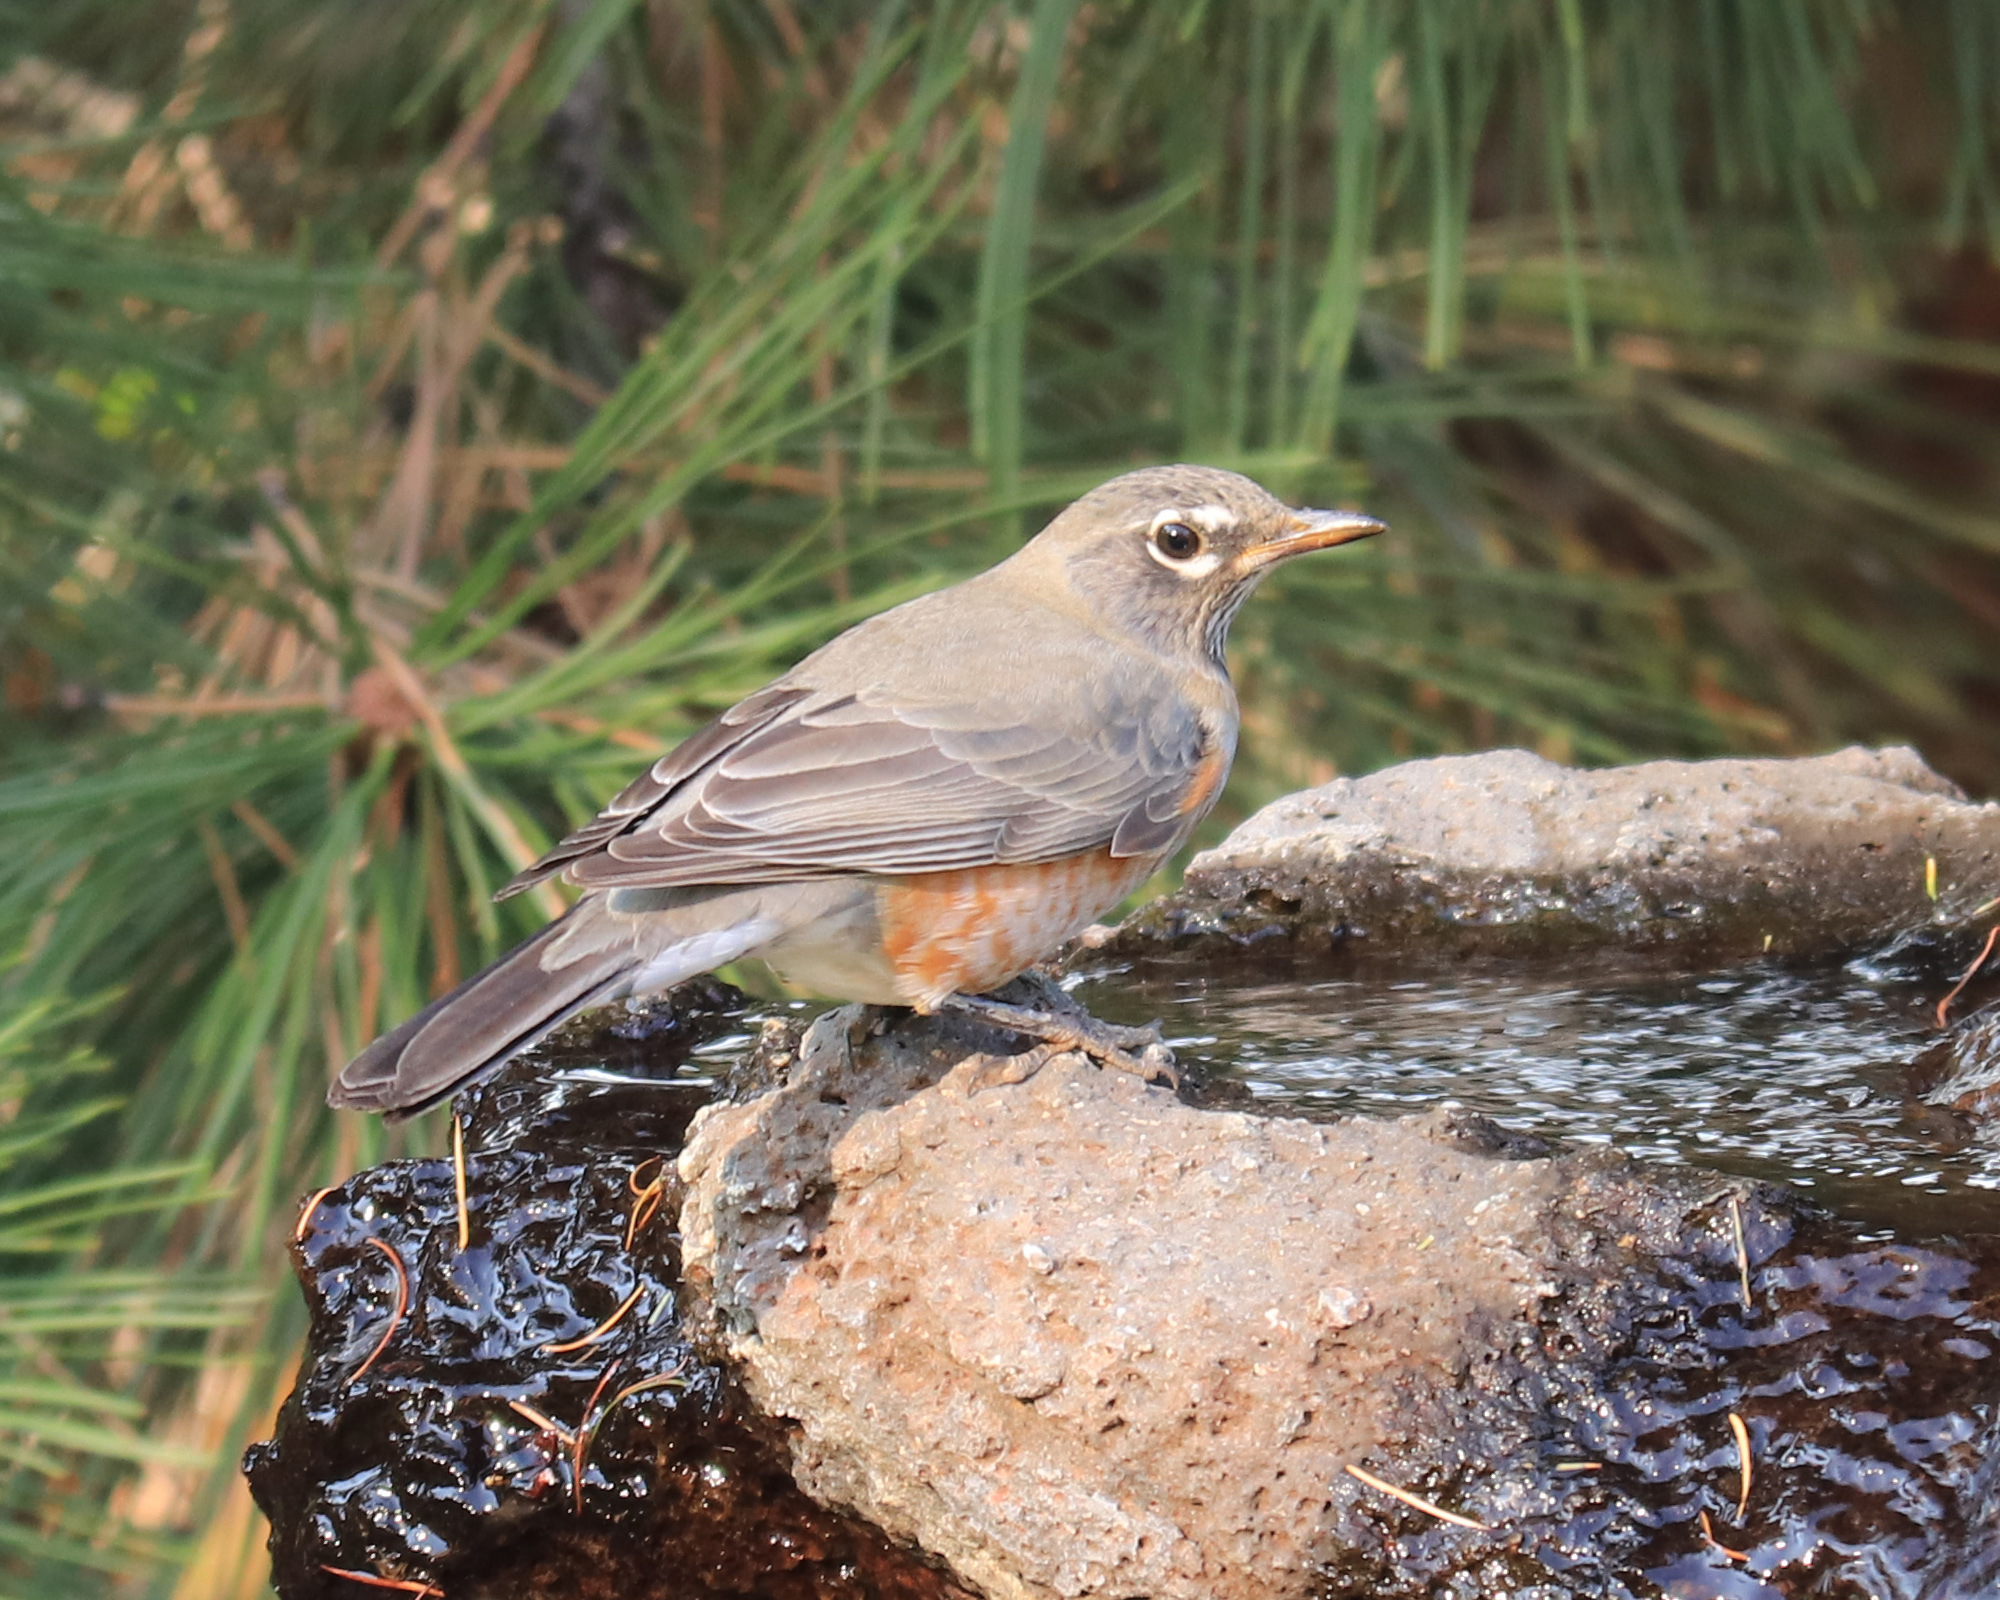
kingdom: Animalia
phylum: Chordata
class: Aves
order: Passeriformes
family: Turdidae
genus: Turdus
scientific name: Turdus migratorius
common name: American robin
